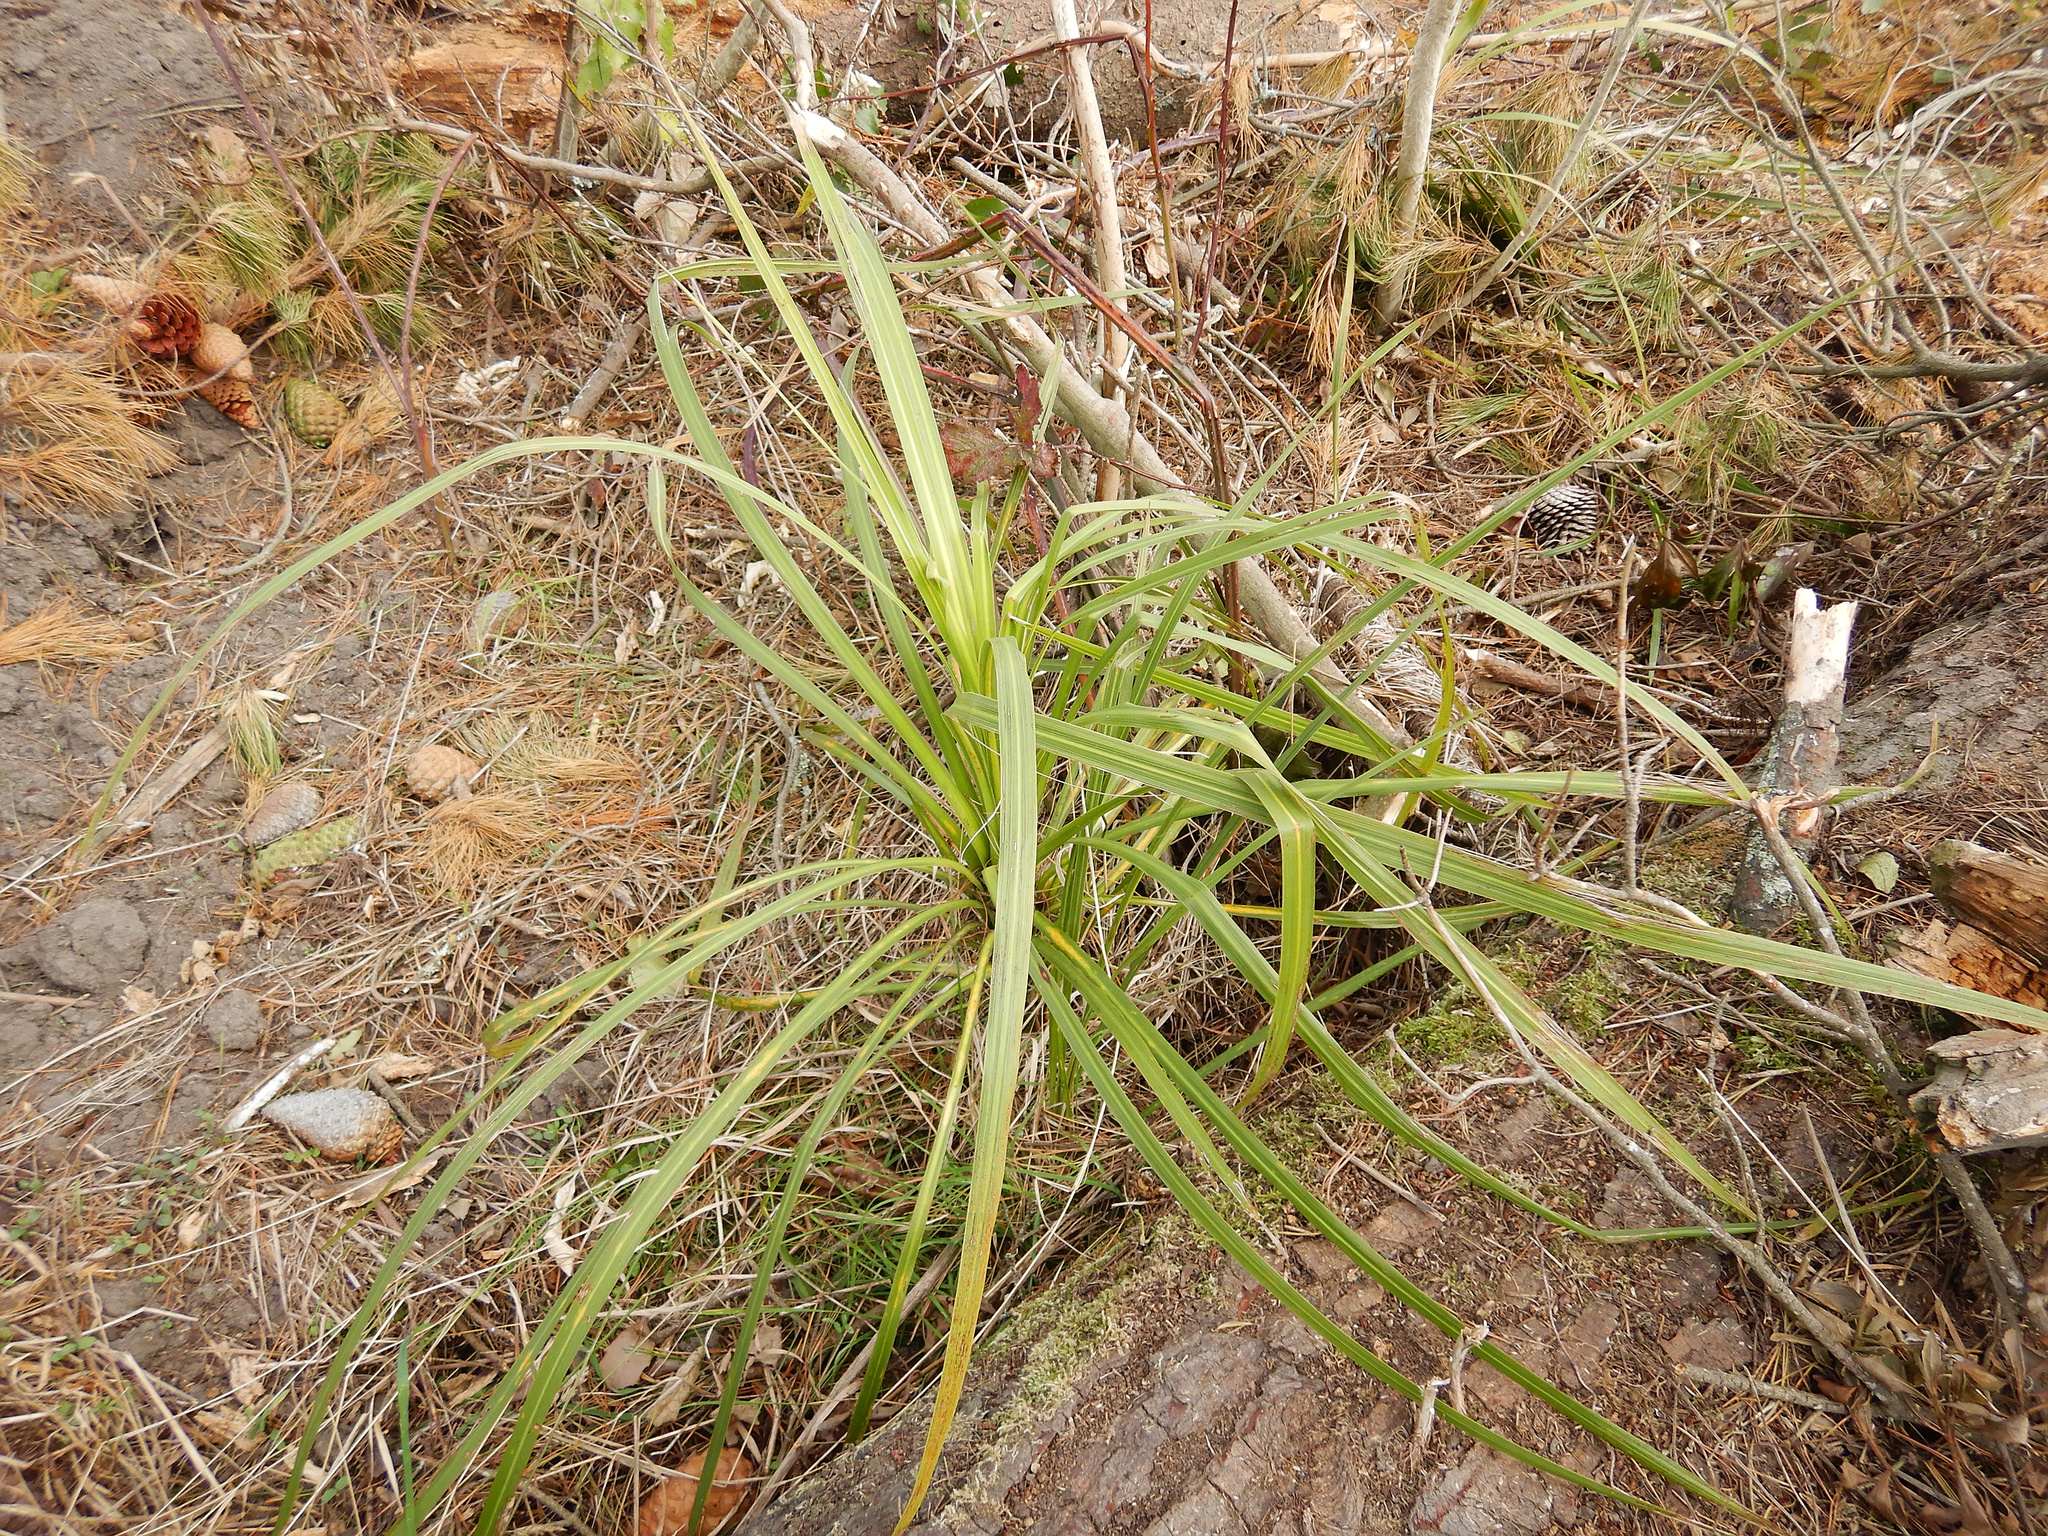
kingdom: Plantae
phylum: Tracheophyta
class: Liliopsida
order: Asparagales
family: Asparagaceae
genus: Cordyline
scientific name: Cordyline australis
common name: Cabbage-palm
